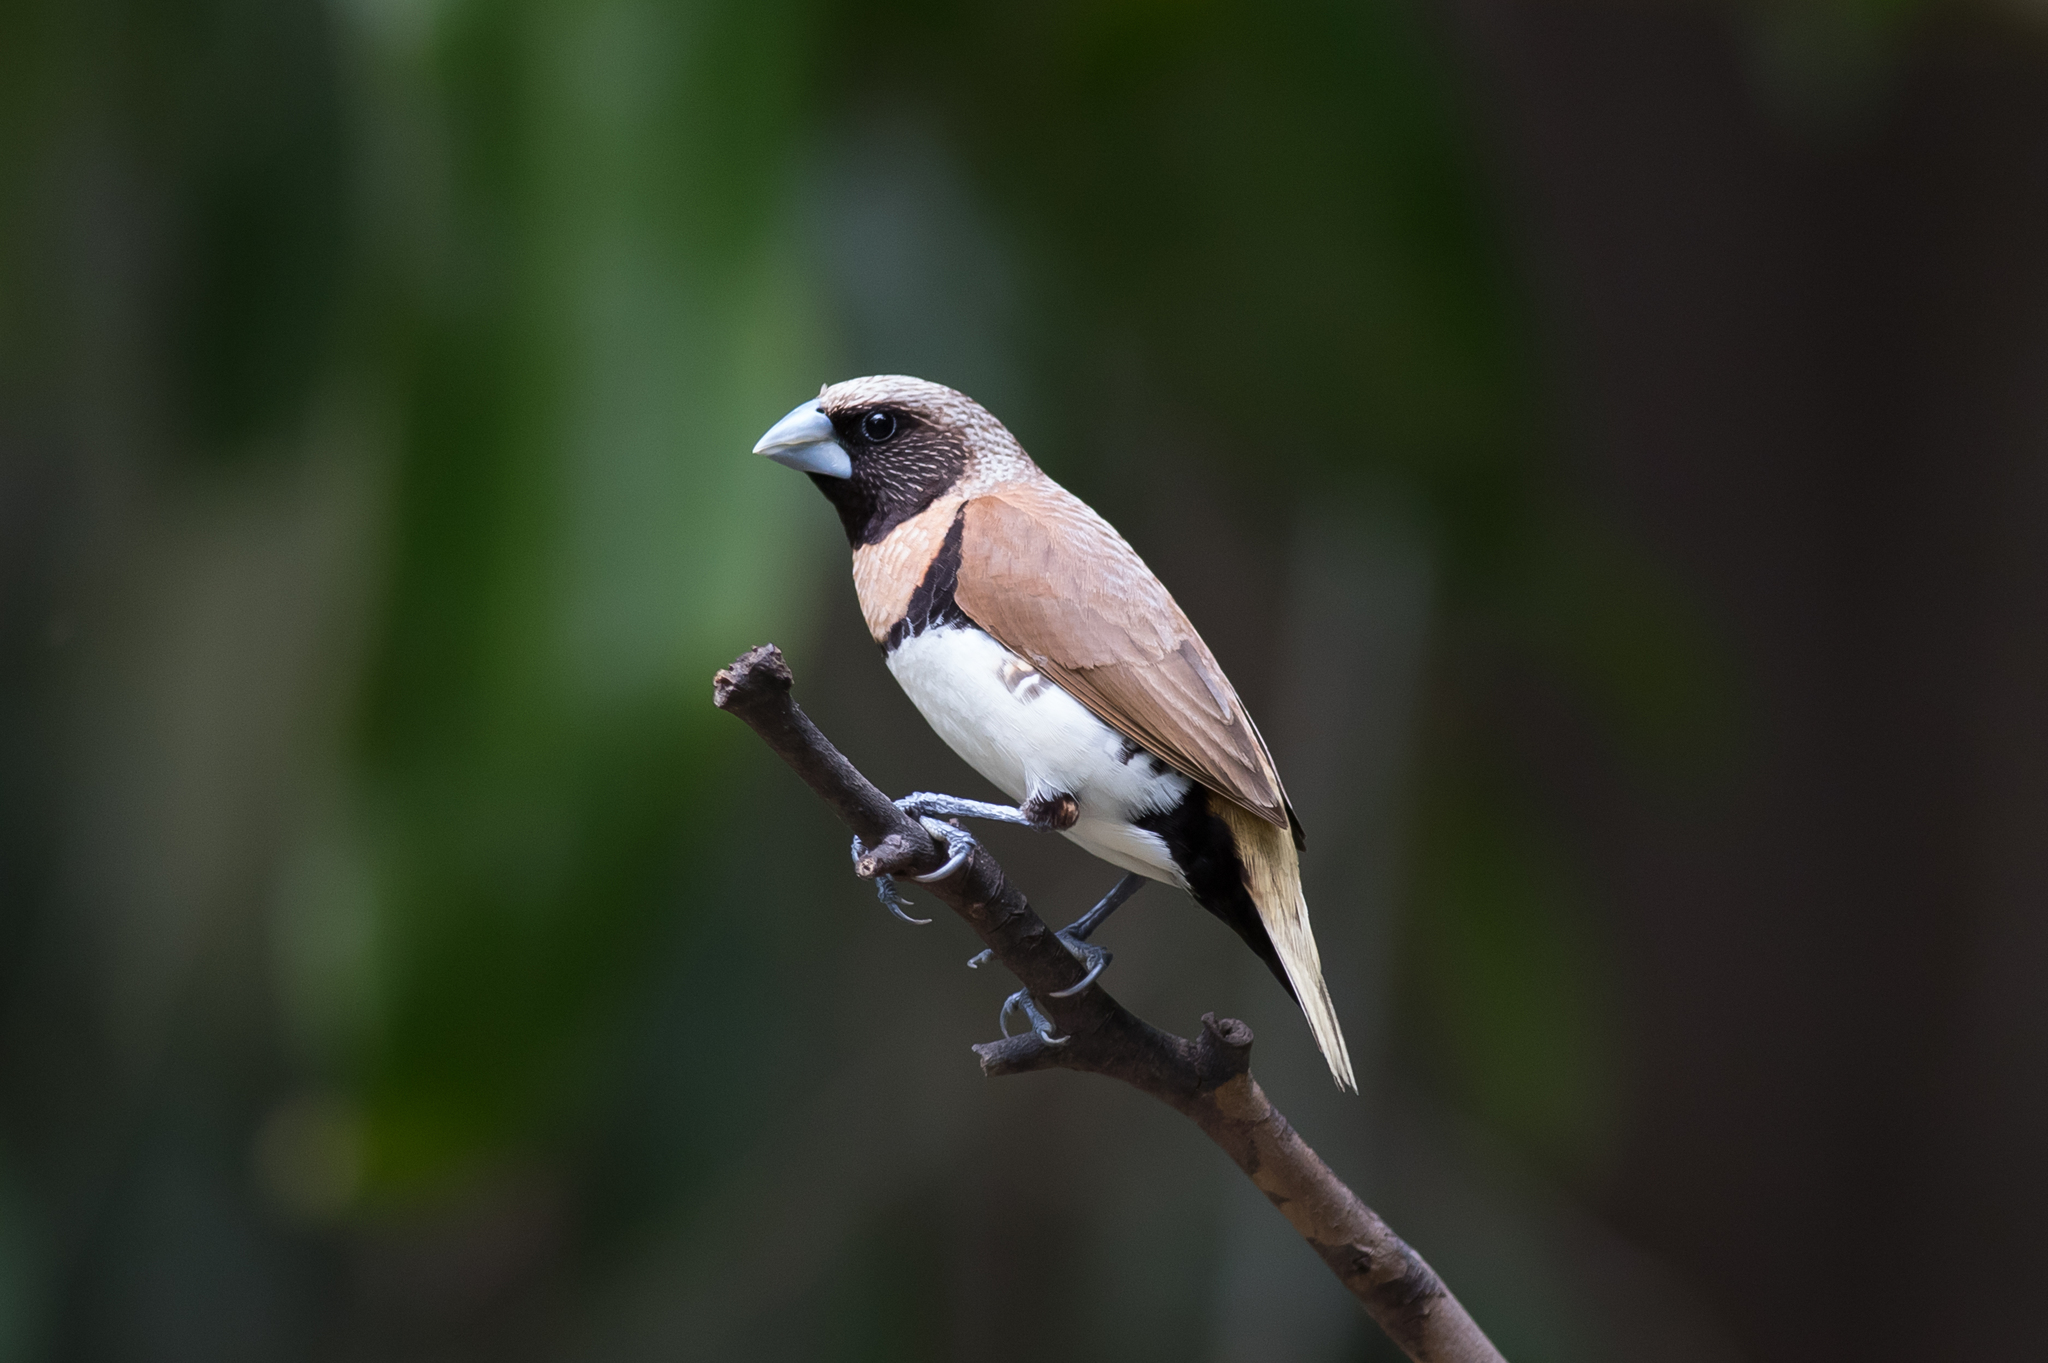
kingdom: Animalia
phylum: Chordata
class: Aves
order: Passeriformes
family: Estrildidae
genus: Lonchura
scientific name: Lonchura castaneothorax
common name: Chestnut-breasted mannikin
